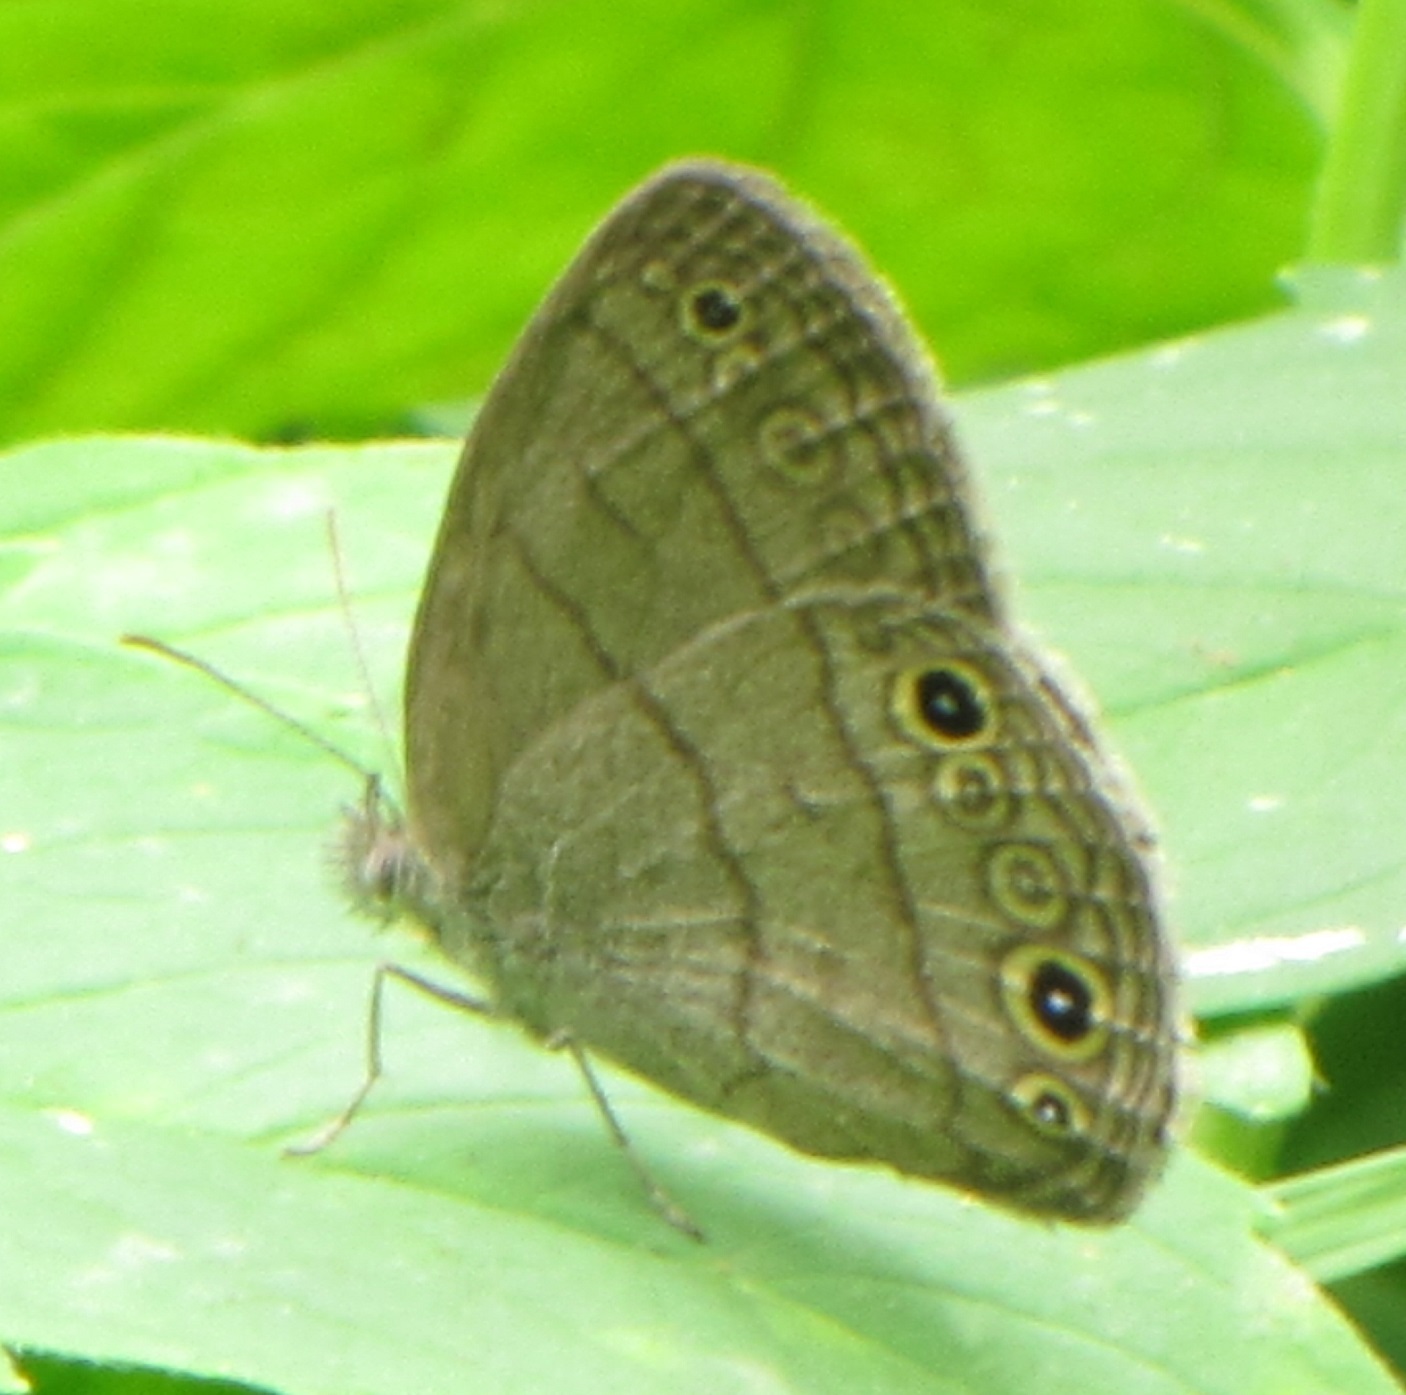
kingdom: Animalia
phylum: Arthropoda
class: Insecta
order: Lepidoptera
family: Nymphalidae
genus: Hermeuptychia
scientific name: Hermeuptychia hermes
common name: Hermes satyr
